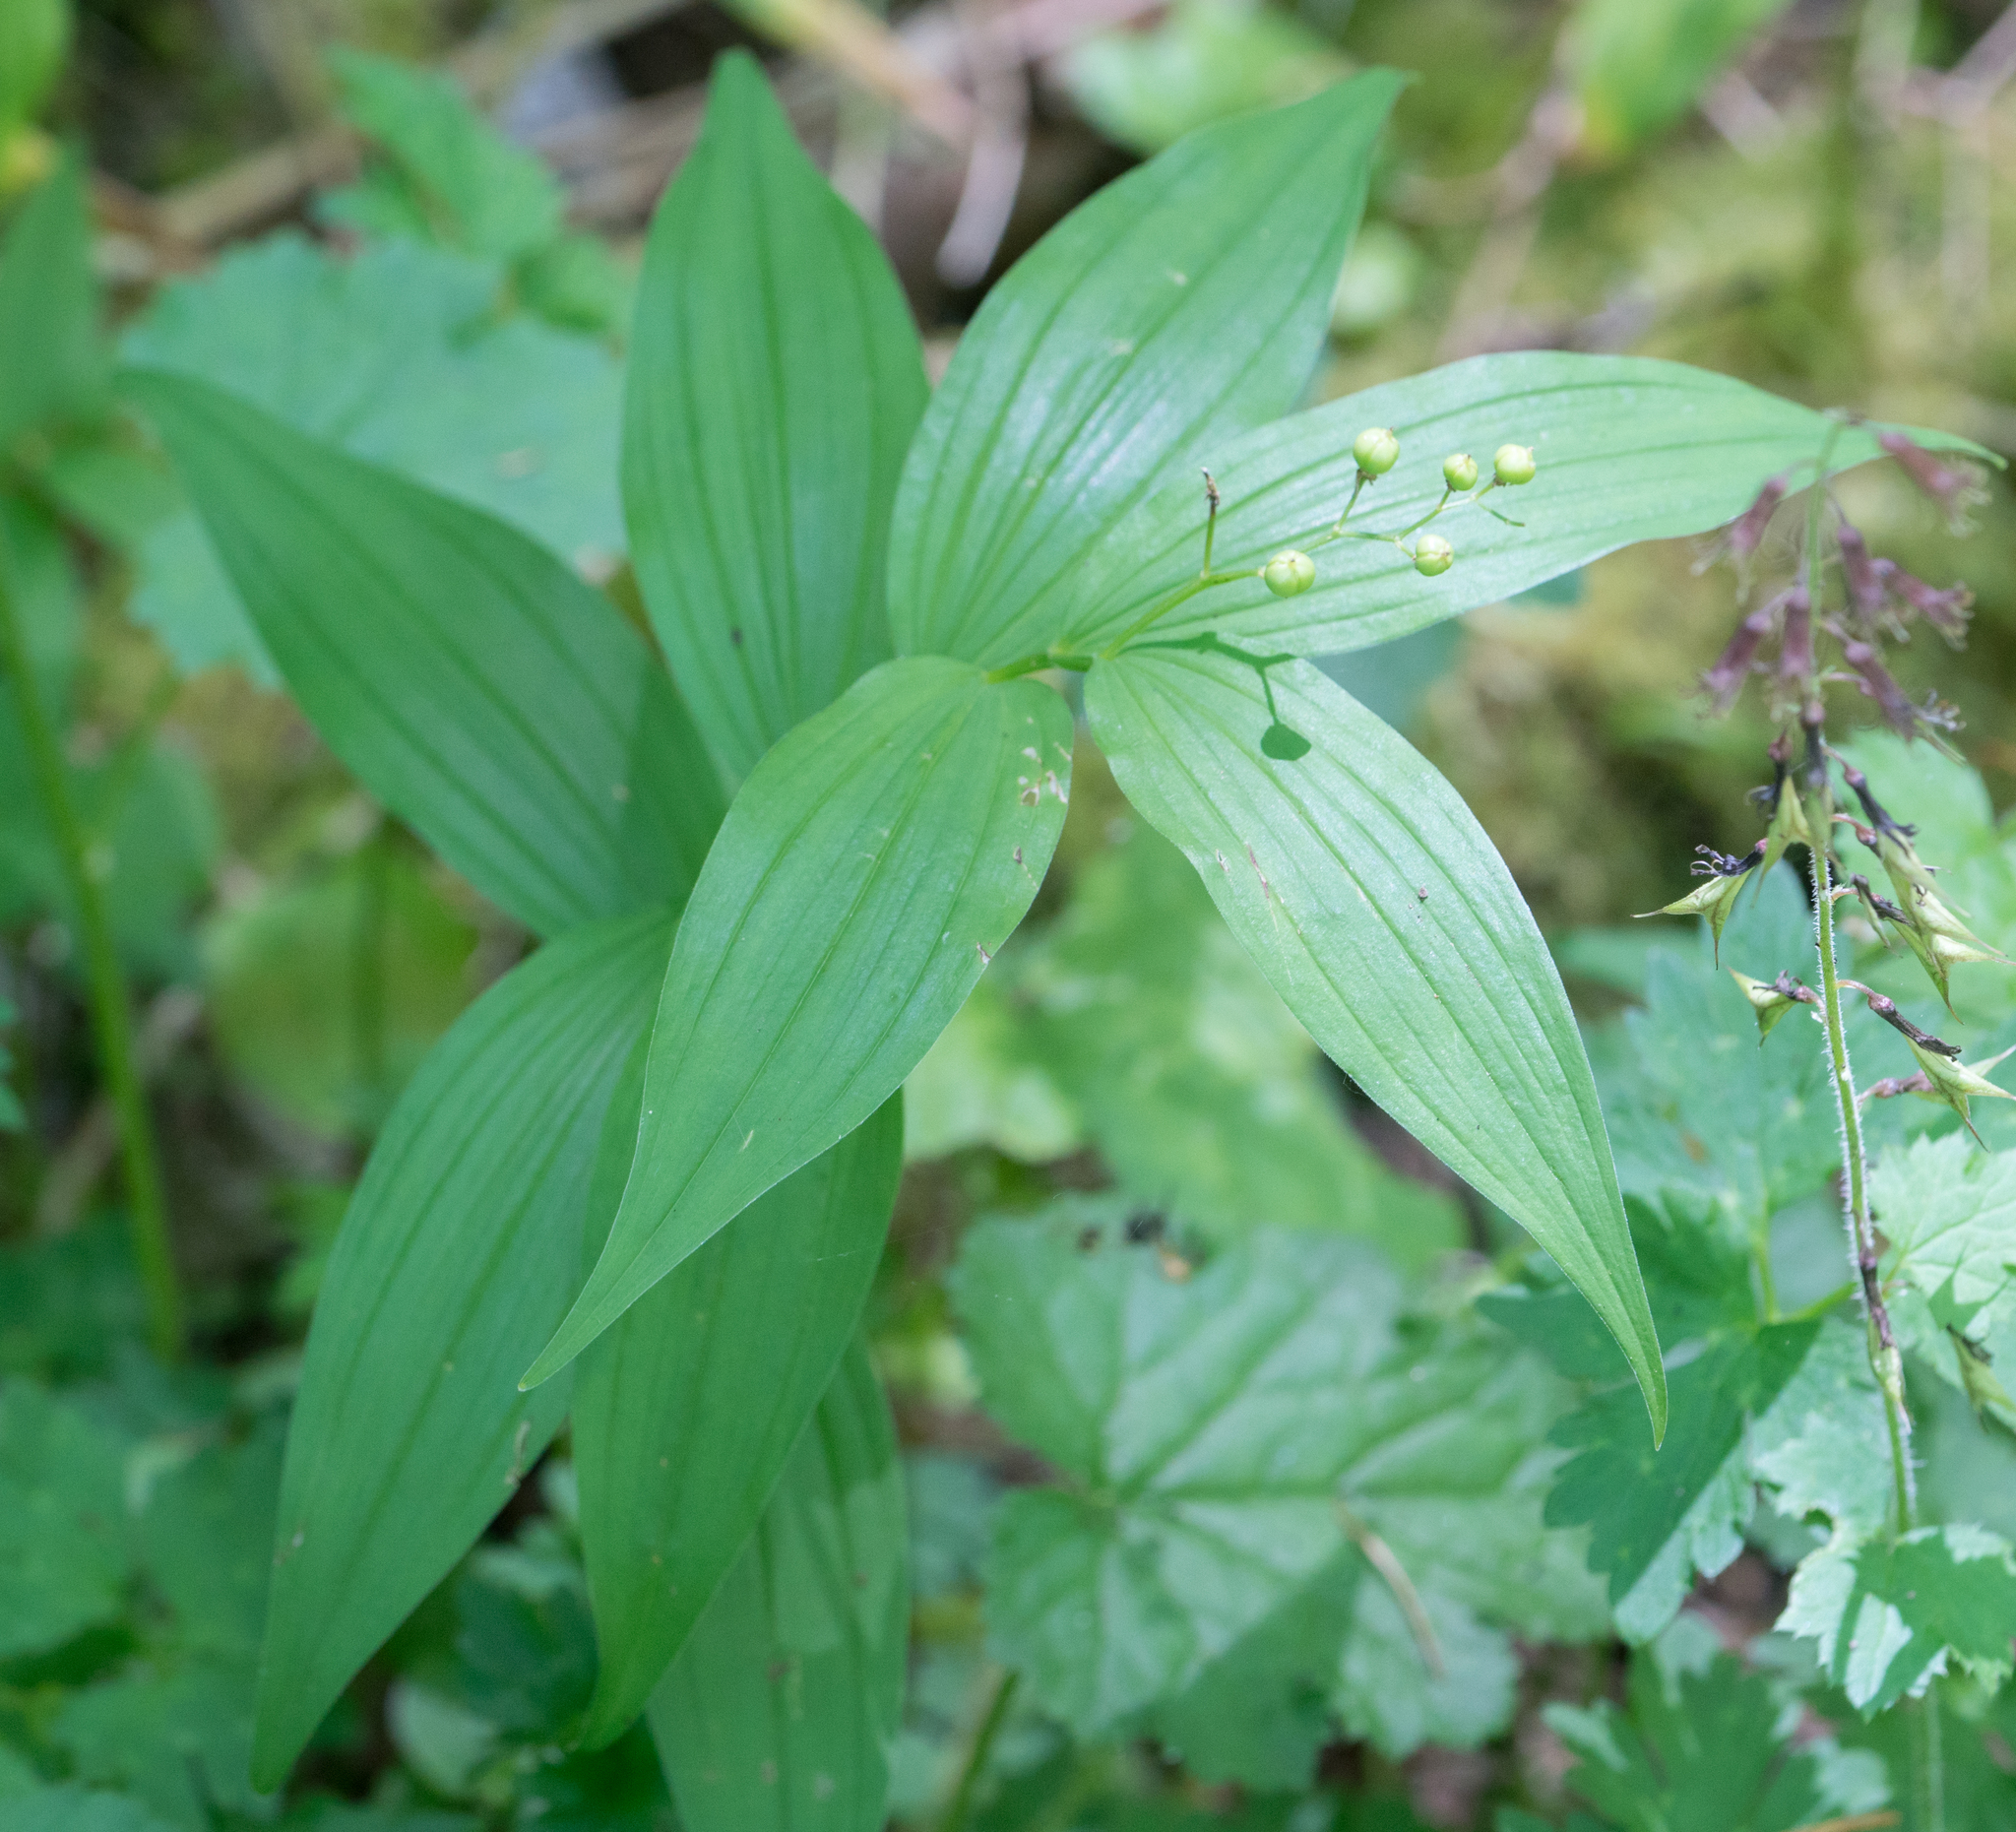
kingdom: Plantae
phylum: Tracheophyta
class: Liliopsida
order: Asparagales
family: Asparagaceae
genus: Maianthemum
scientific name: Maianthemum stellatum
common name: Little false solomon's seal
